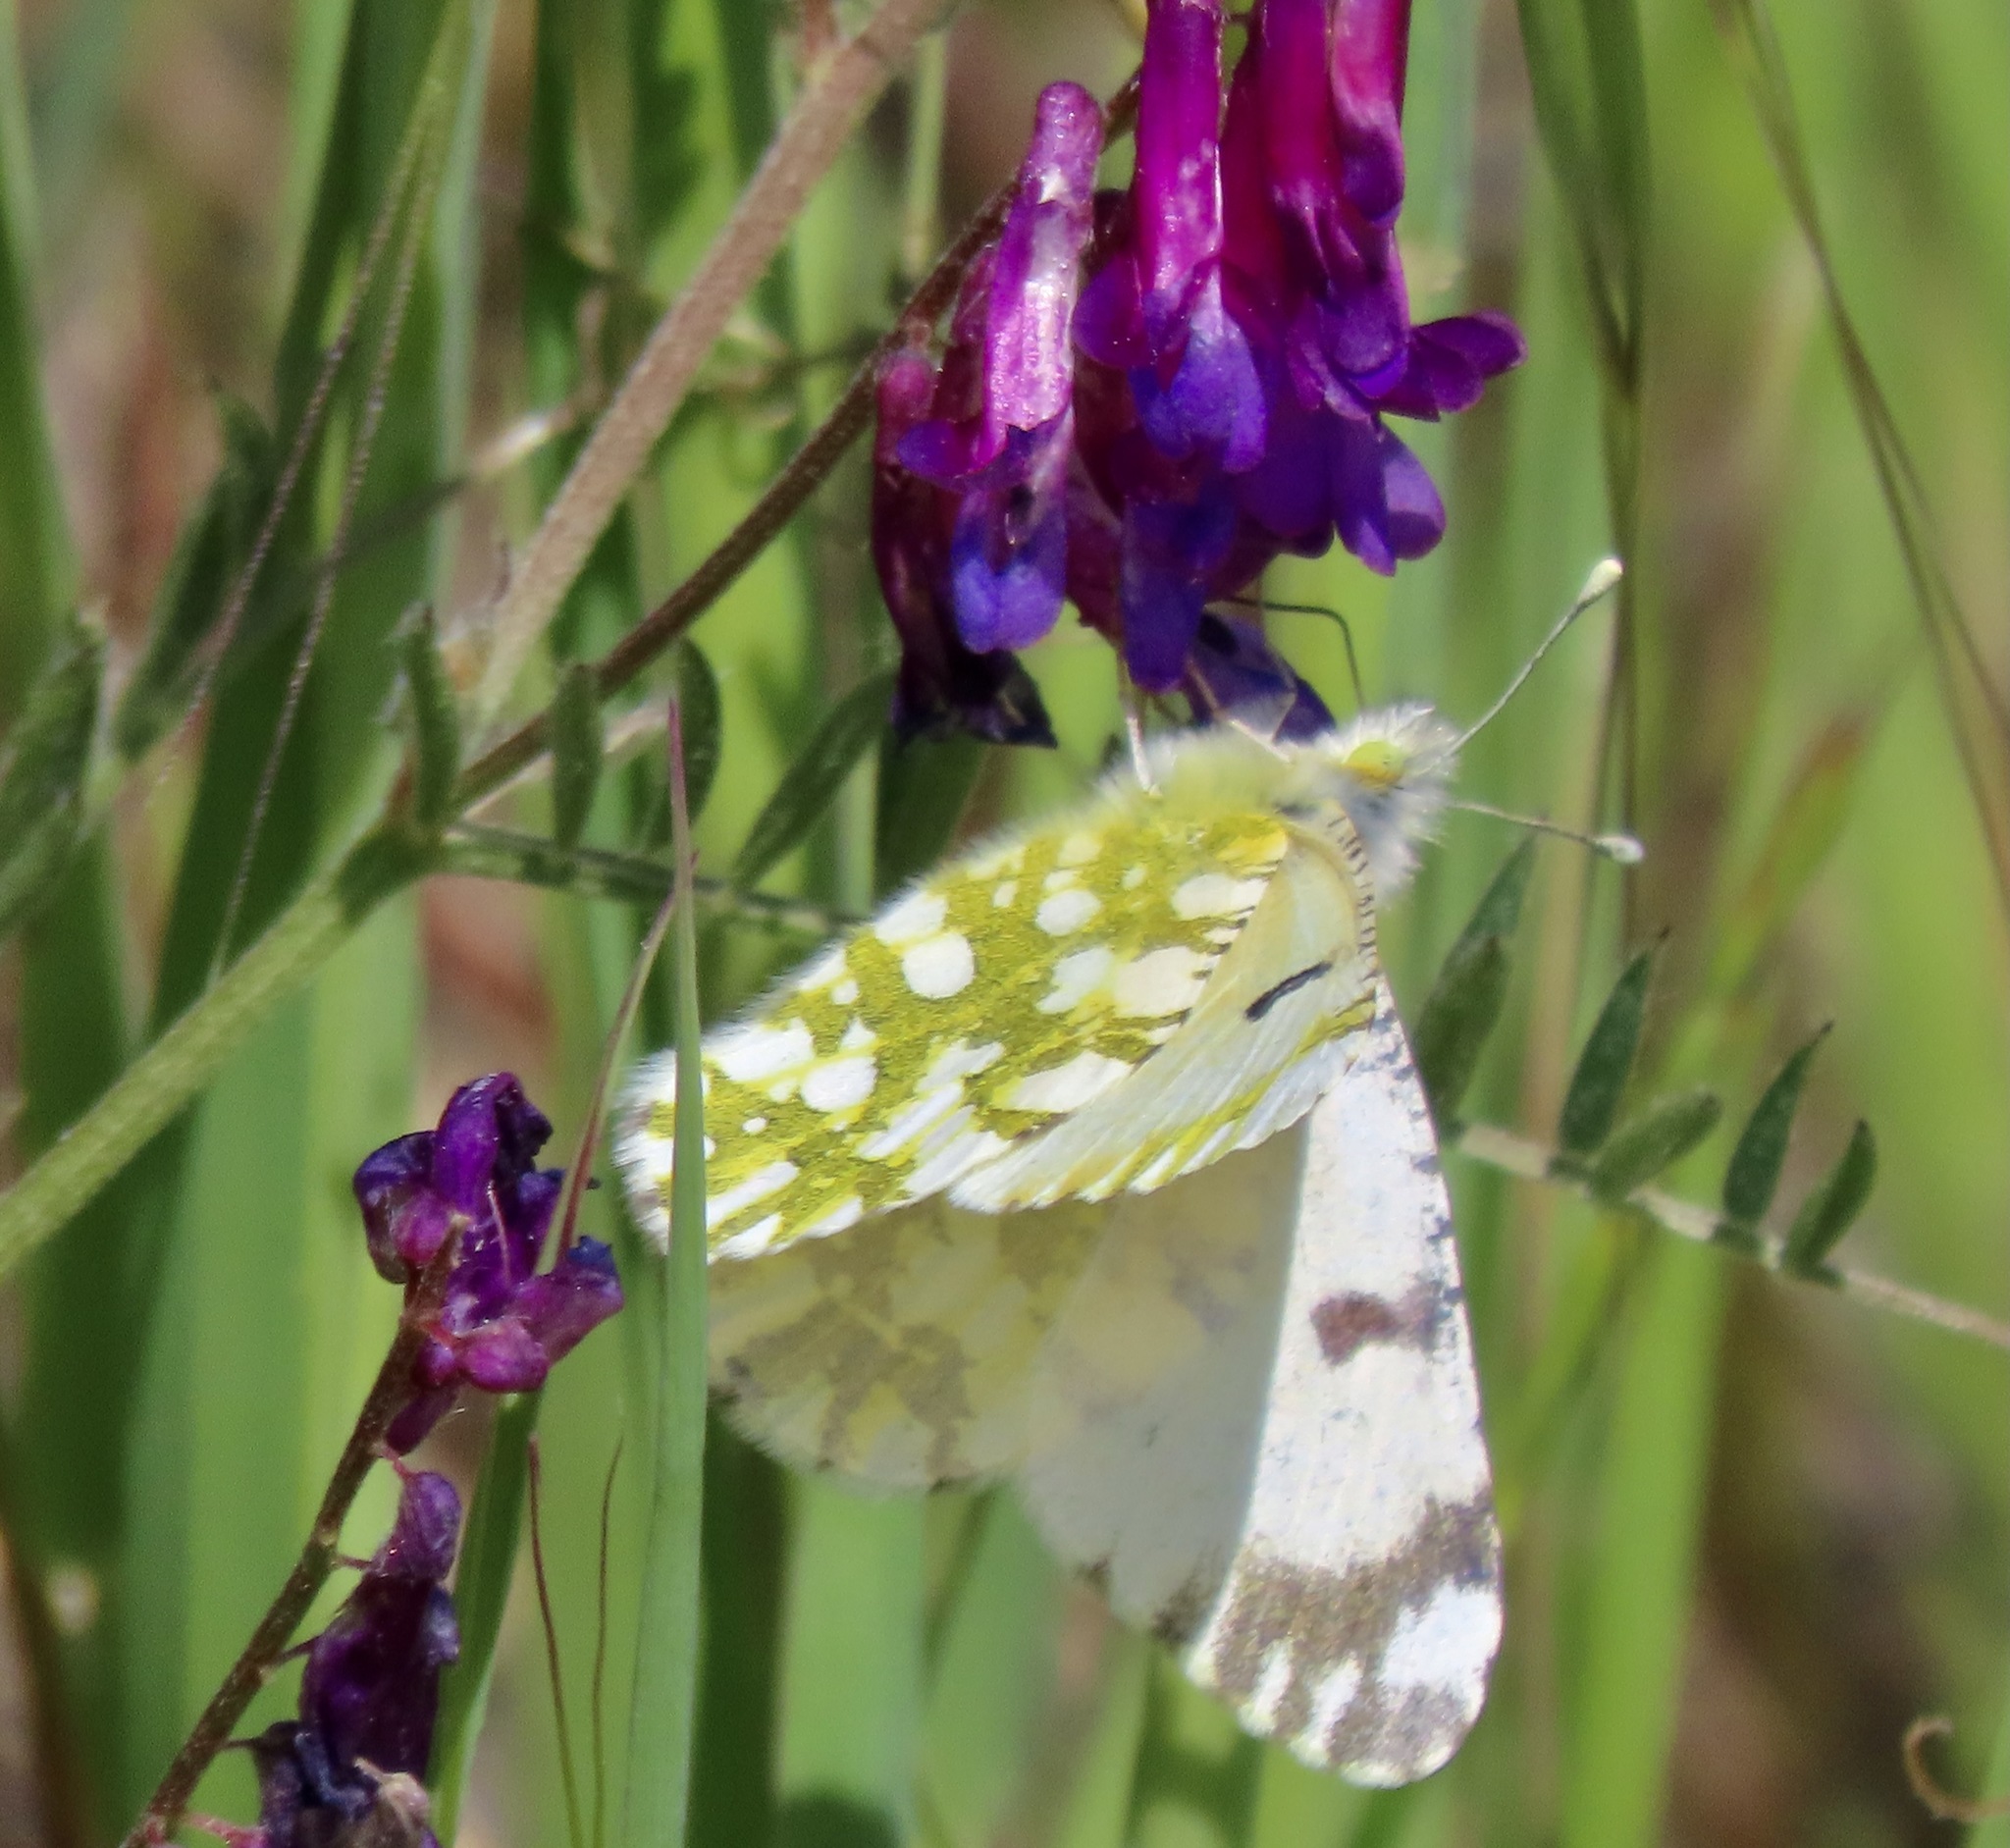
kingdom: Animalia
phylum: Arthropoda
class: Insecta
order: Lepidoptera
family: Pieridae
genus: Euchloe
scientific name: Euchloe ausonides
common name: Creamy marblewing
